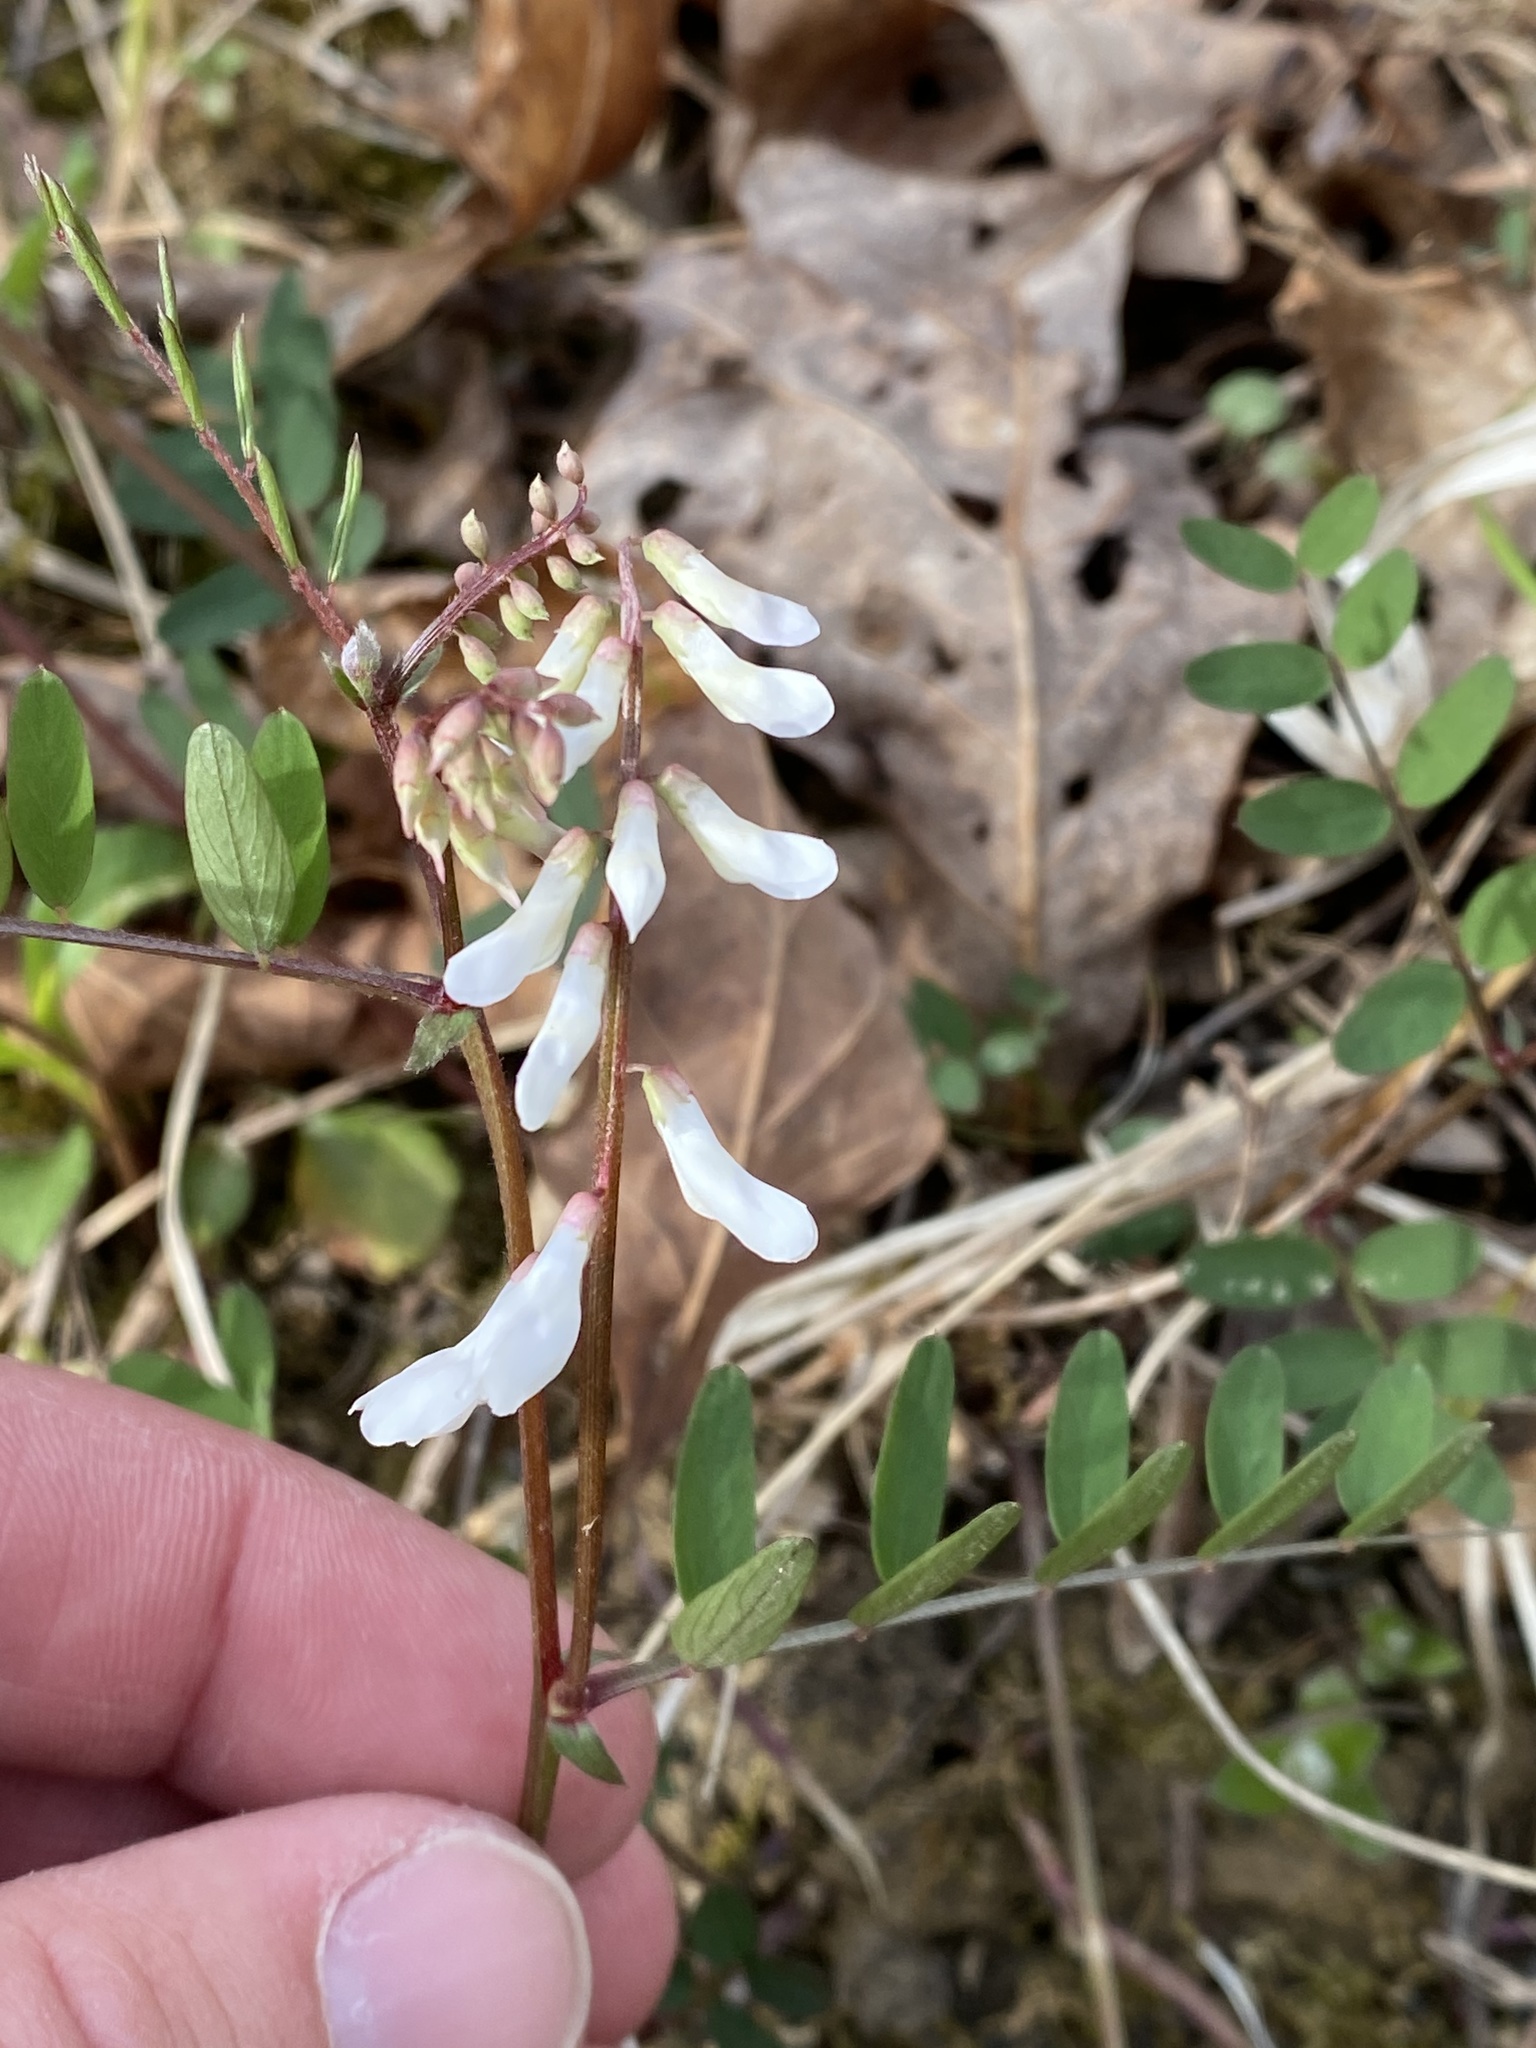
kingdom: Plantae
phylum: Tracheophyta
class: Magnoliopsida
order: Fabales
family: Fabaceae
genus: Vicia
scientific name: Vicia caroliniana
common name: Carolina vetch
